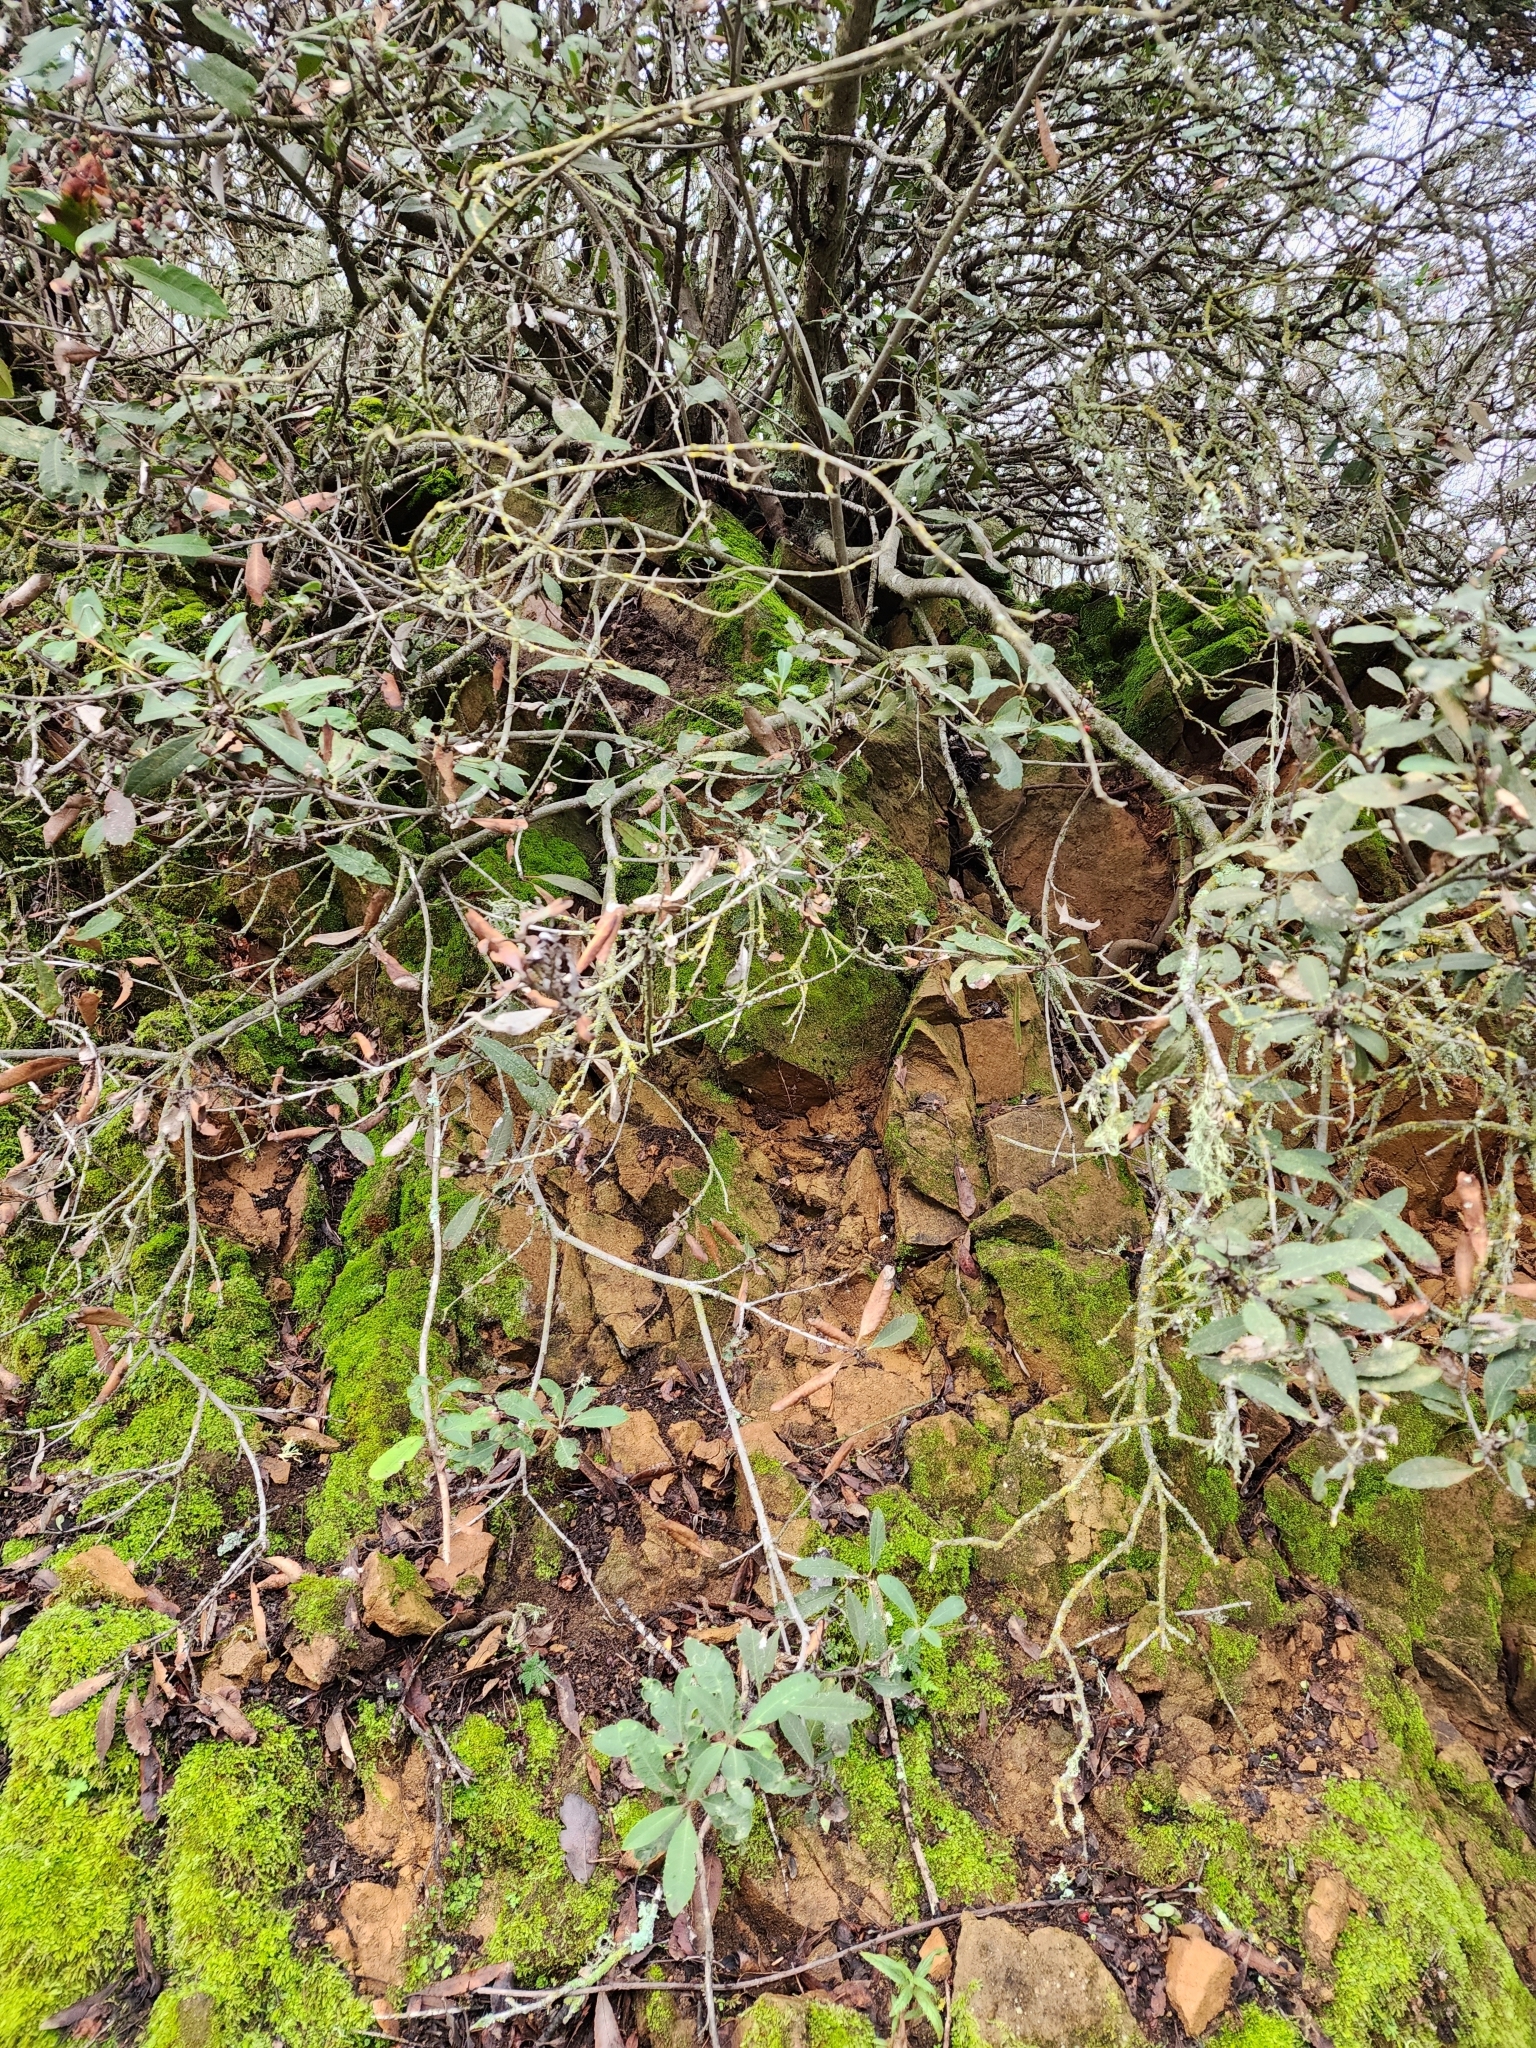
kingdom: Plantae
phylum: Tracheophyta
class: Magnoliopsida
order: Rosales
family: Rosaceae
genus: Heteromeles
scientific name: Heteromeles arbutifolia
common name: California-holly
